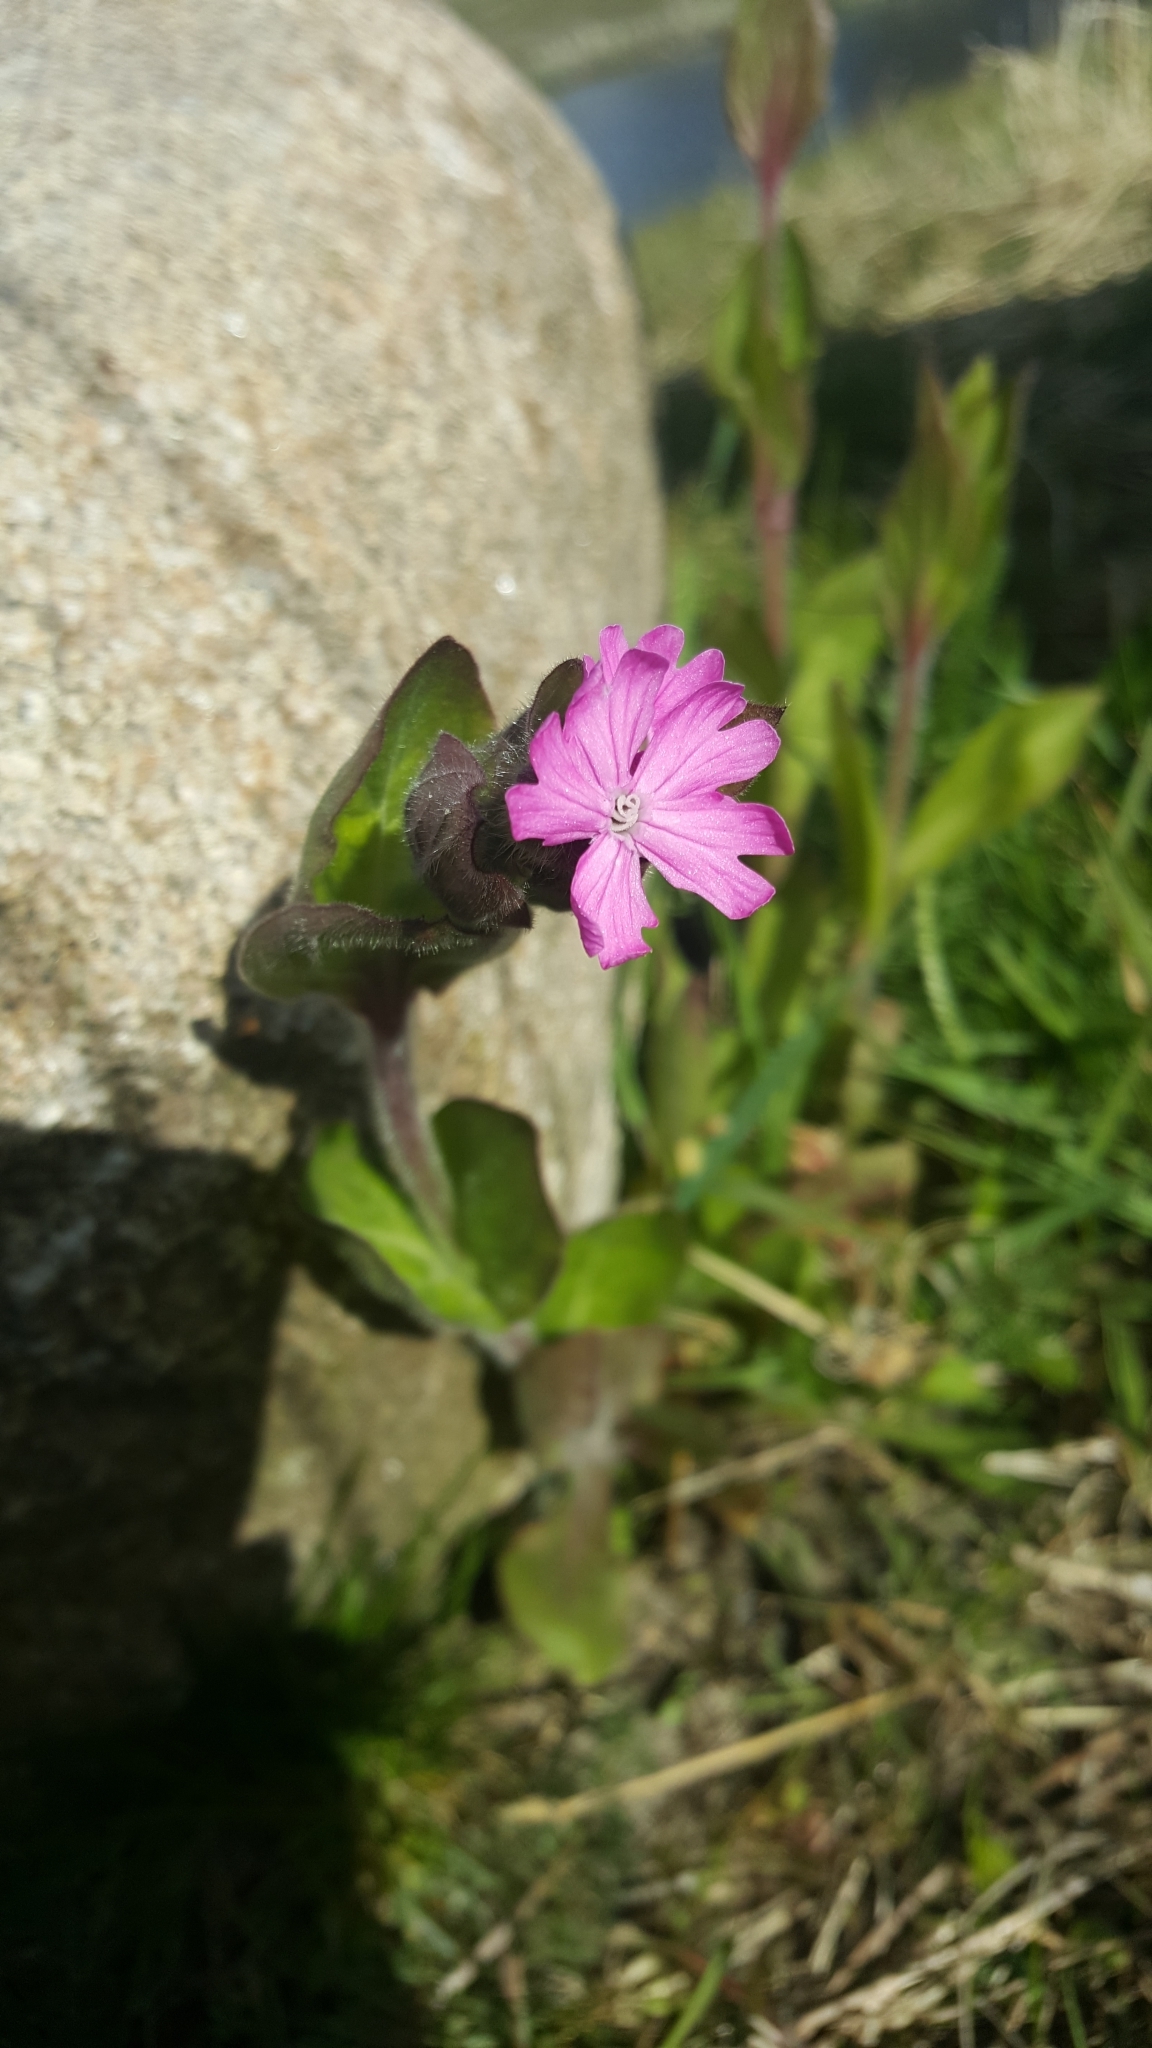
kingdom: Plantae
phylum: Tracheophyta
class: Magnoliopsida
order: Caryophyllales
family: Caryophyllaceae
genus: Silene
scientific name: Silene dioica
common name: Red campion
